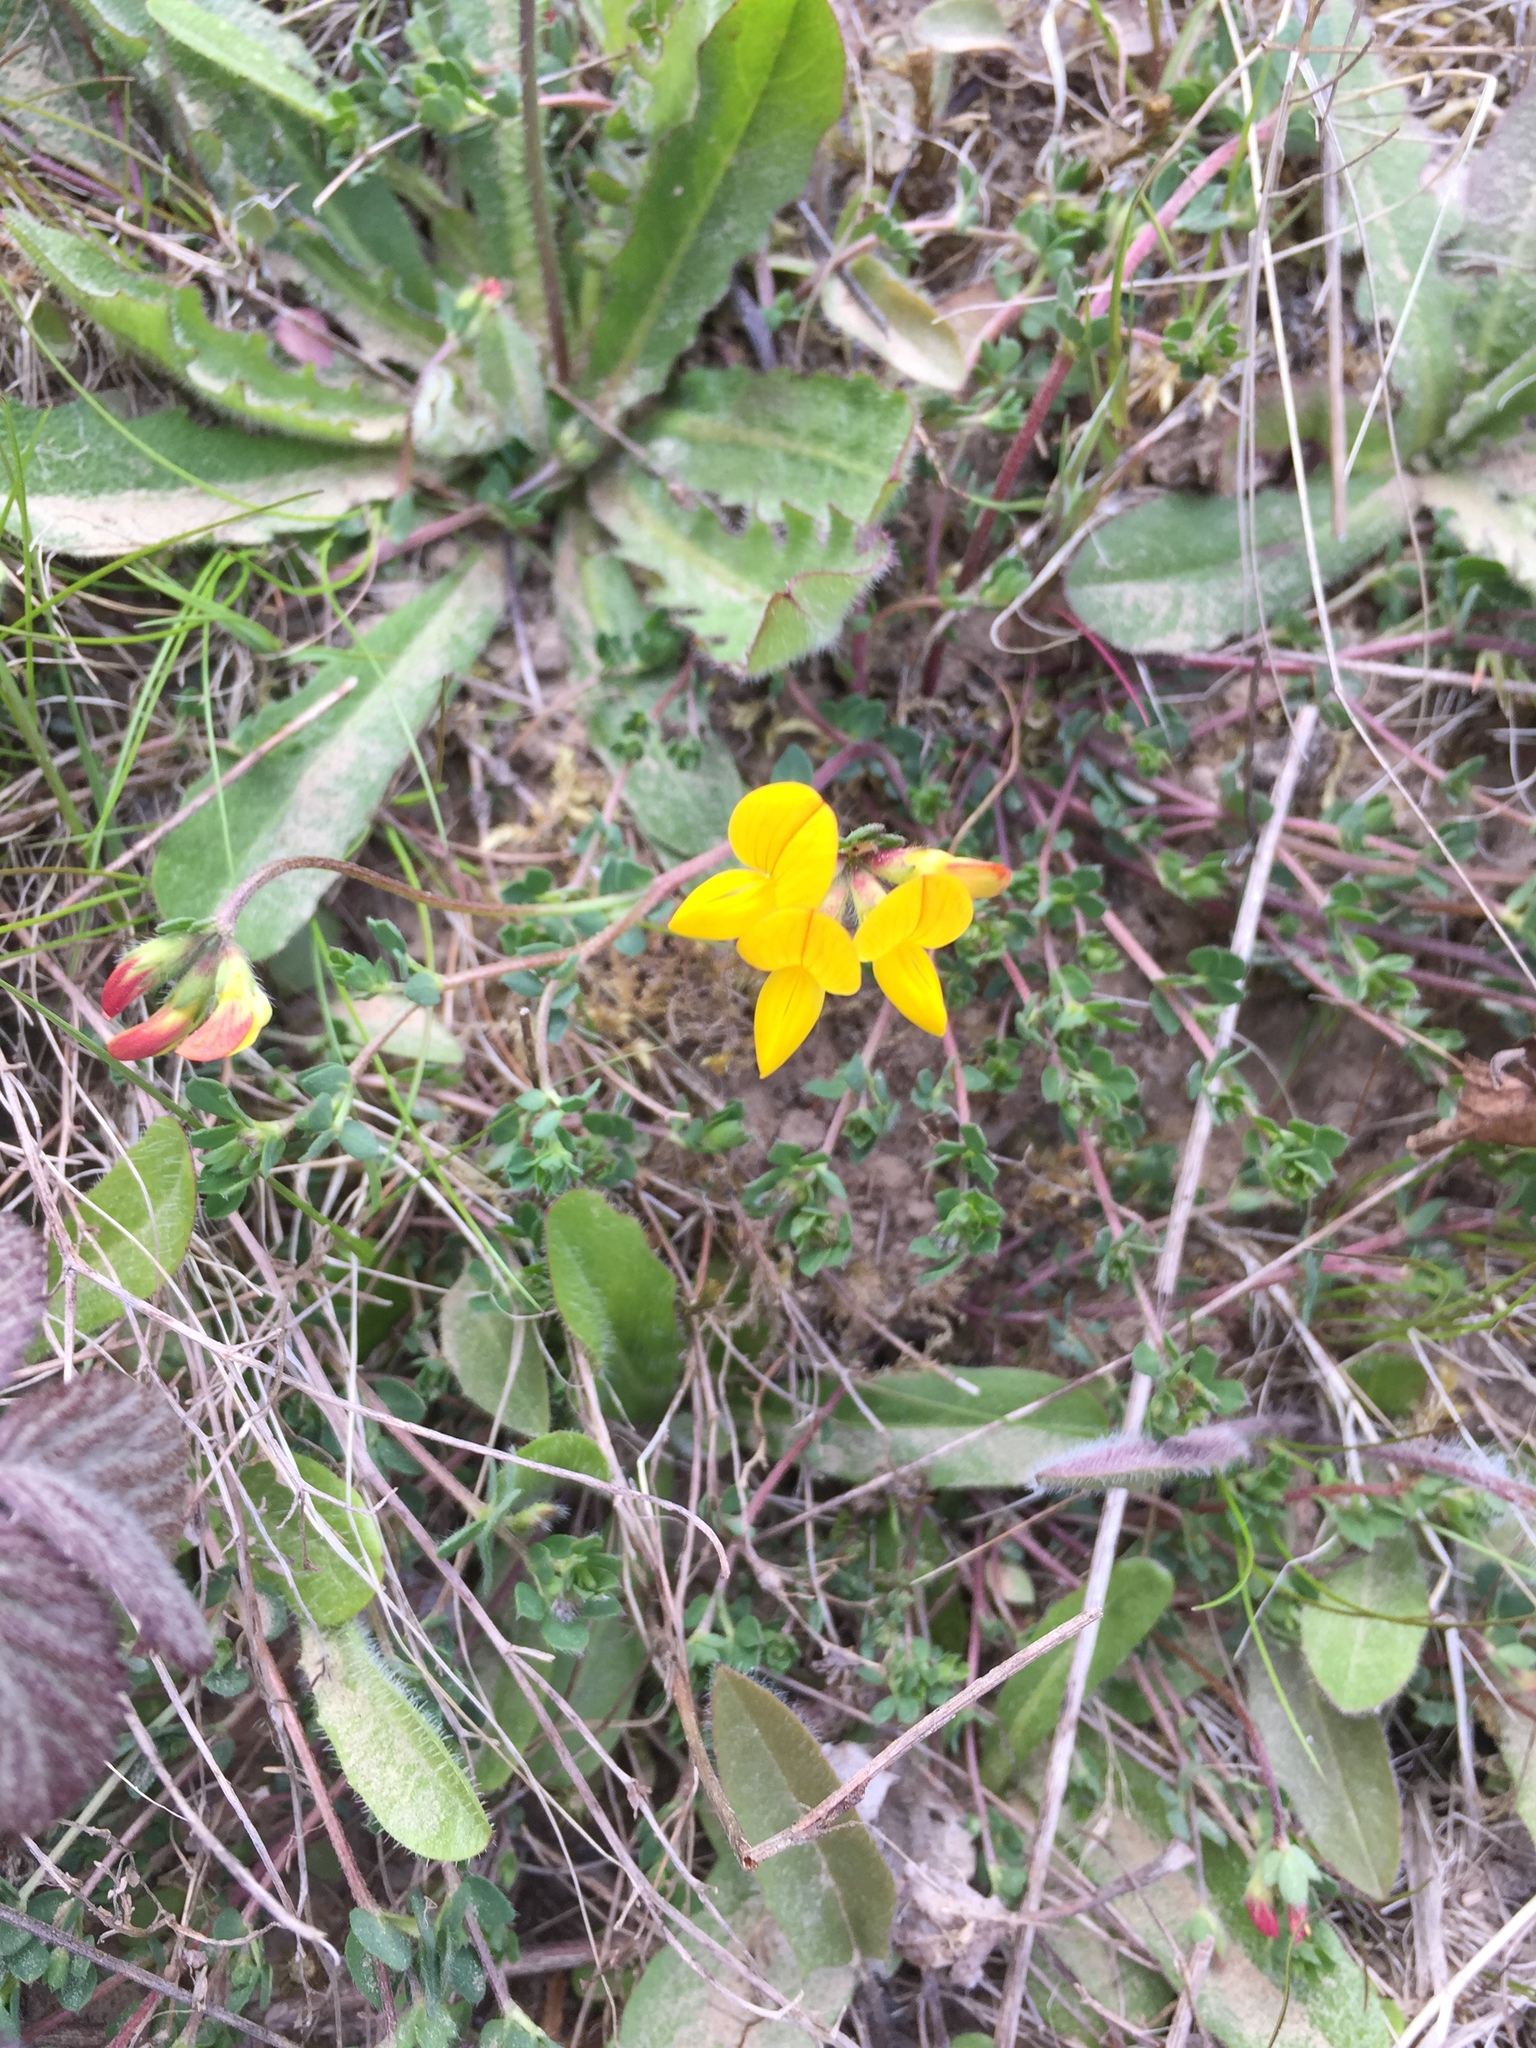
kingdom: Plantae
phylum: Tracheophyta
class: Magnoliopsida
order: Fabales
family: Fabaceae
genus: Lotus
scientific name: Lotus corniculatus
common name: Common bird's-foot-trefoil
